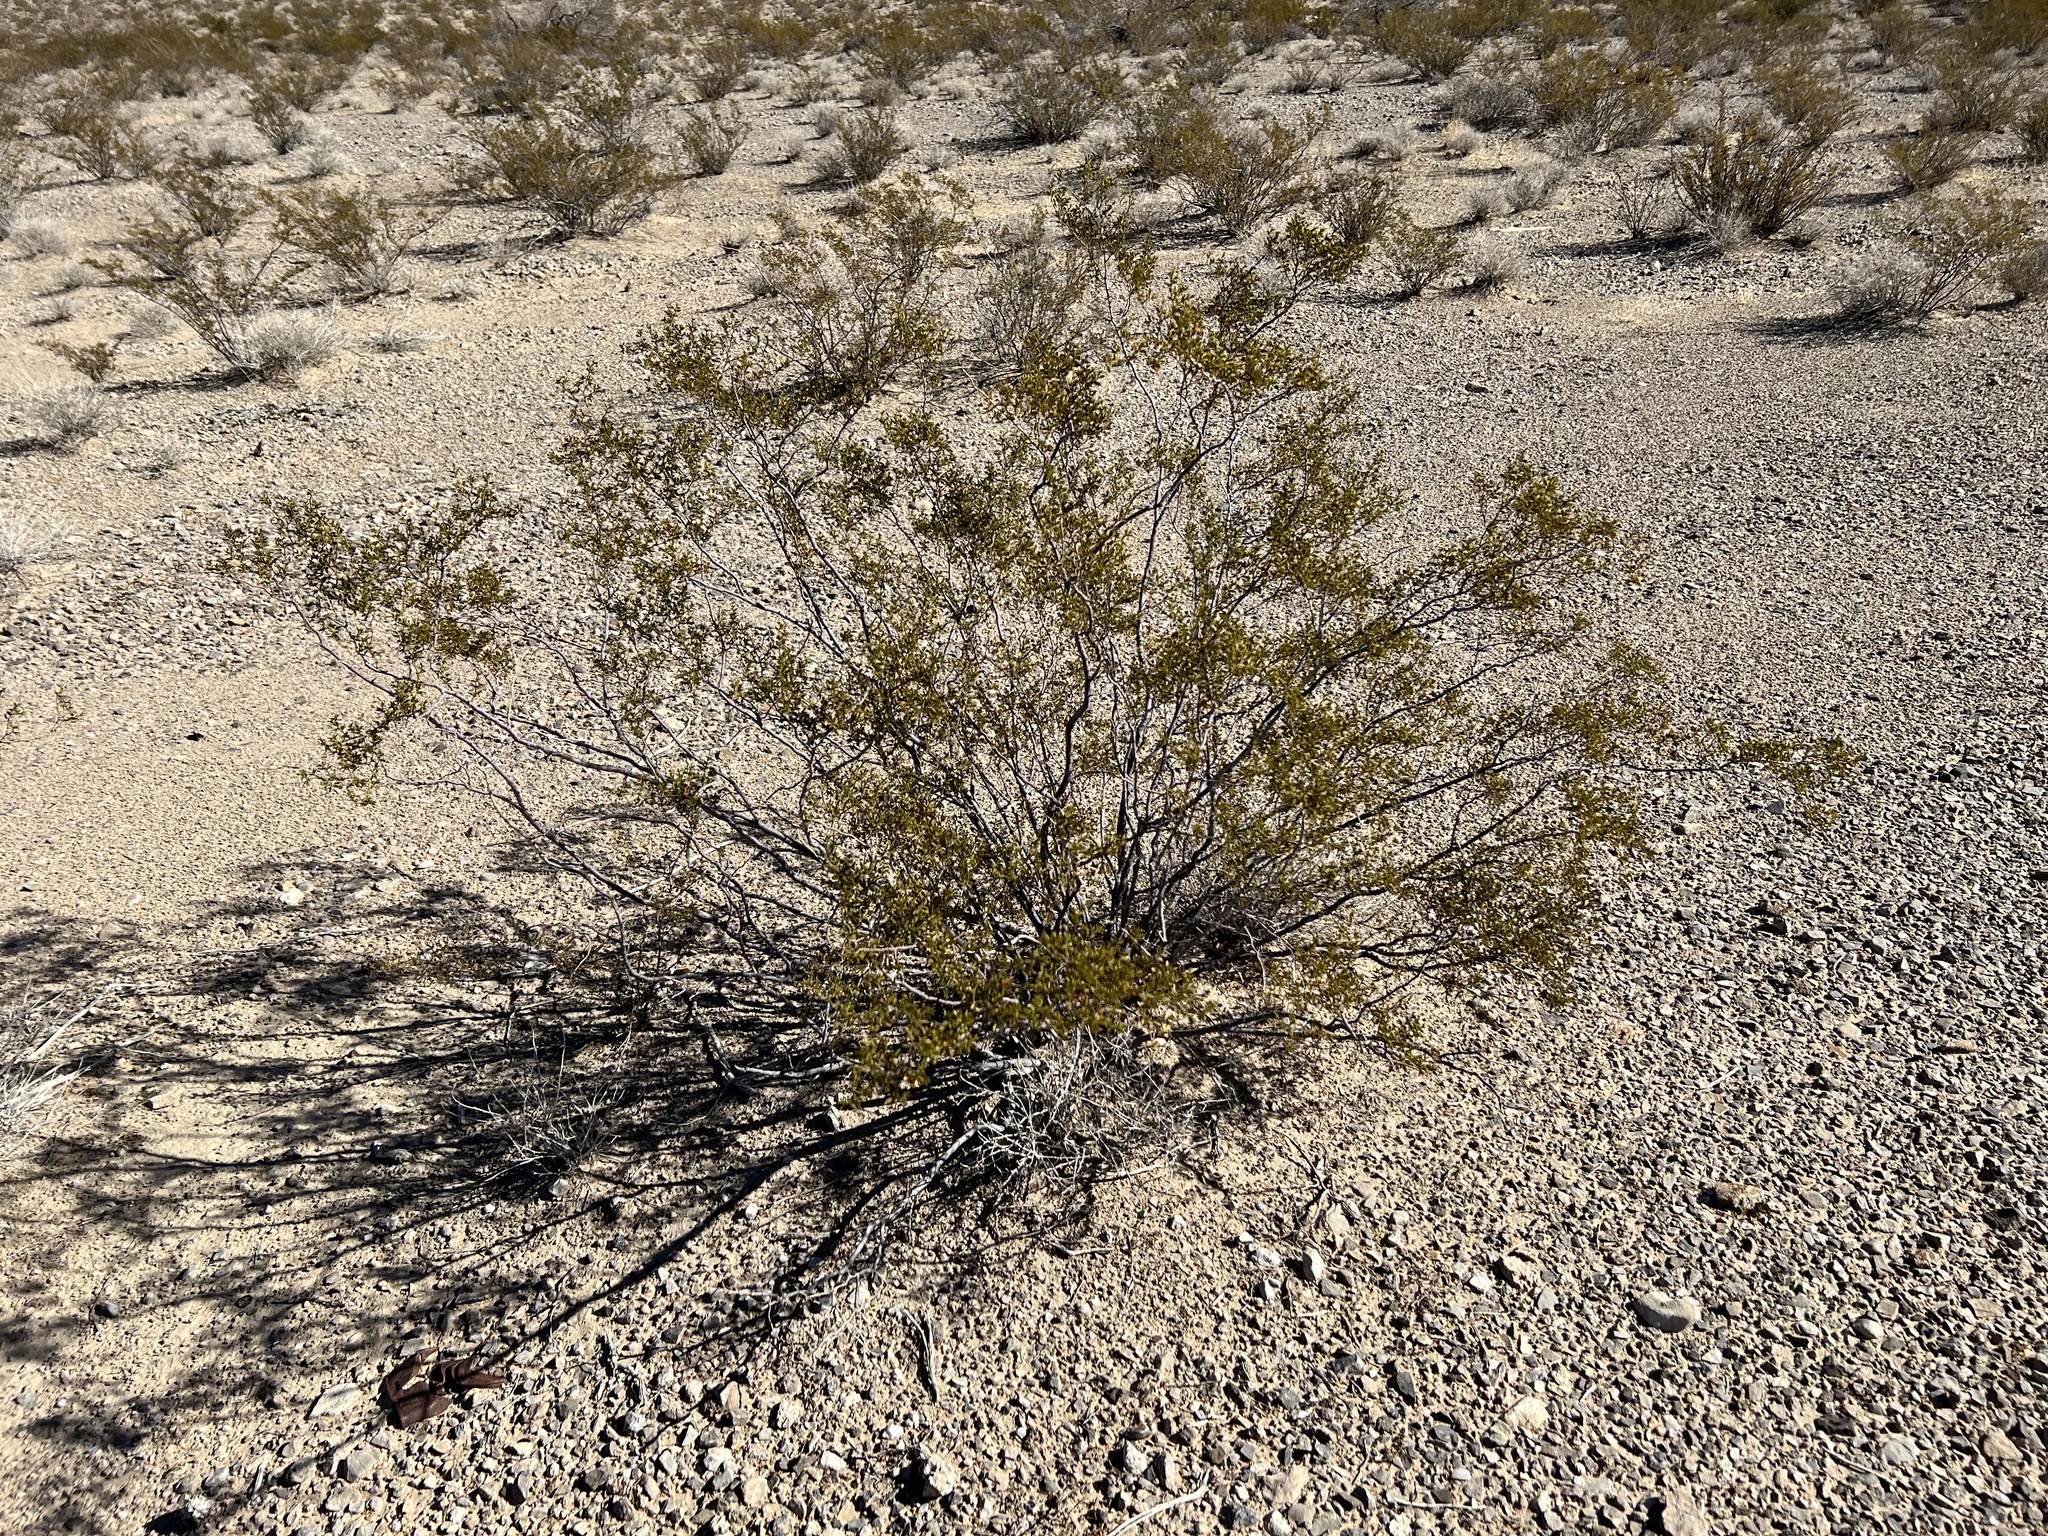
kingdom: Plantae
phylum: Tracheophyta
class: Magnoliopsida
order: Zygophyllales
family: Zygophyllaceae
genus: Larrea
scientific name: Larrea tridentata
